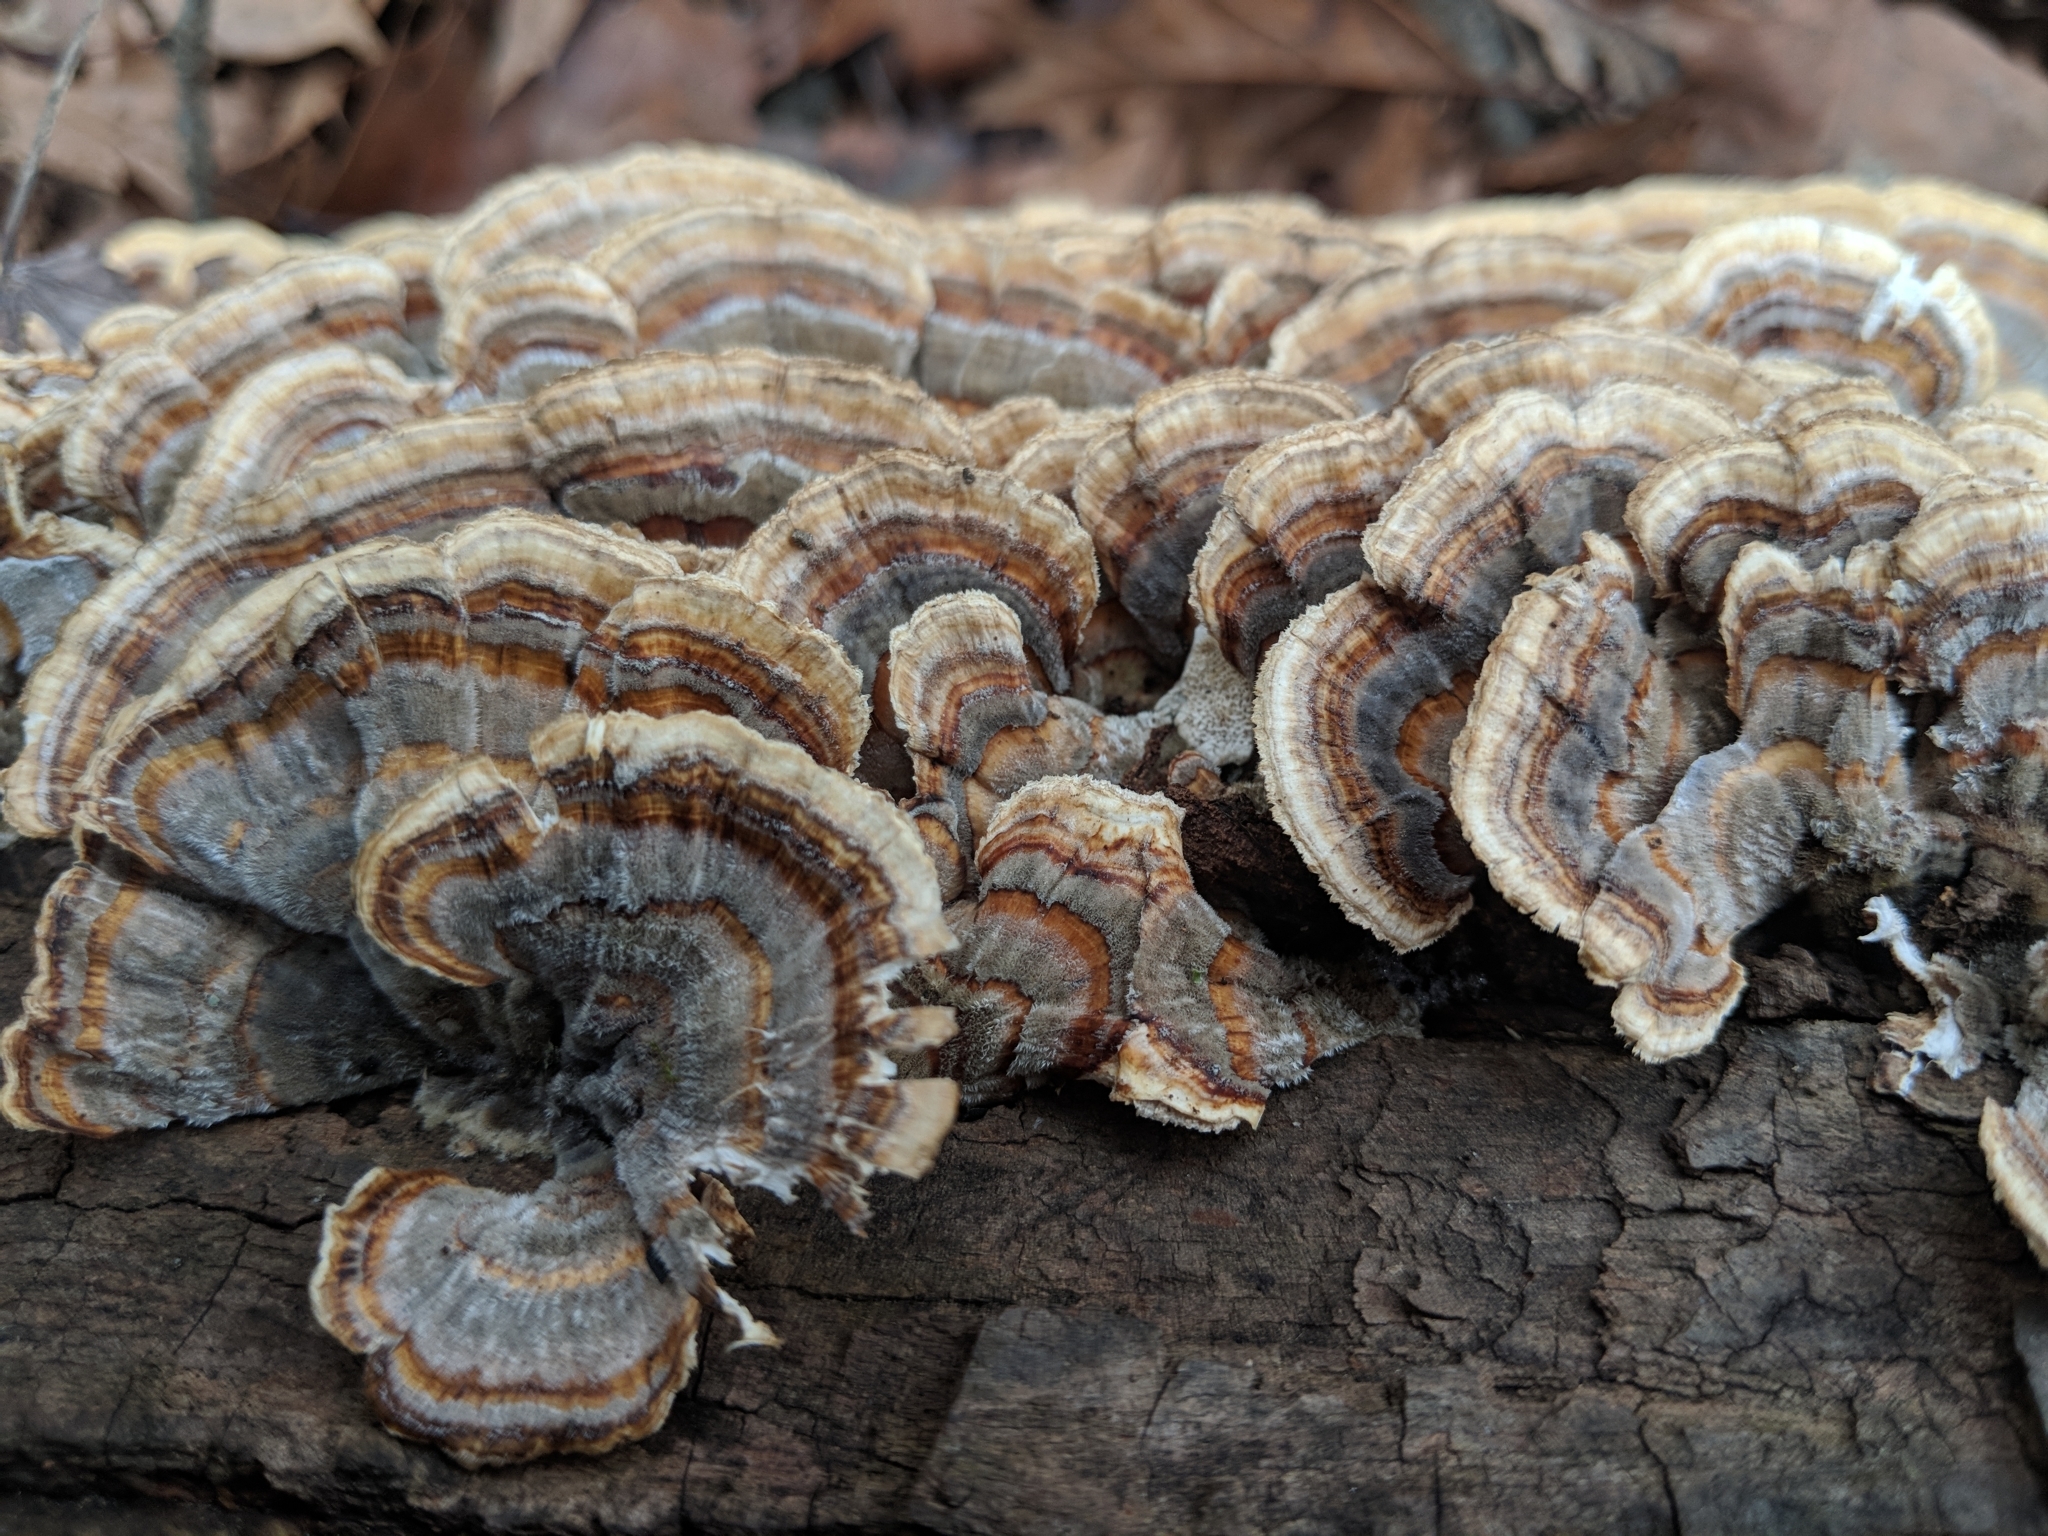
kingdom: Fungi
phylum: Basidiomycota
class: Agaricomycetes
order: Polyporales
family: Polyporaceae
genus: Trametes
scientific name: Trametes versicolor
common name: Turkeytail
